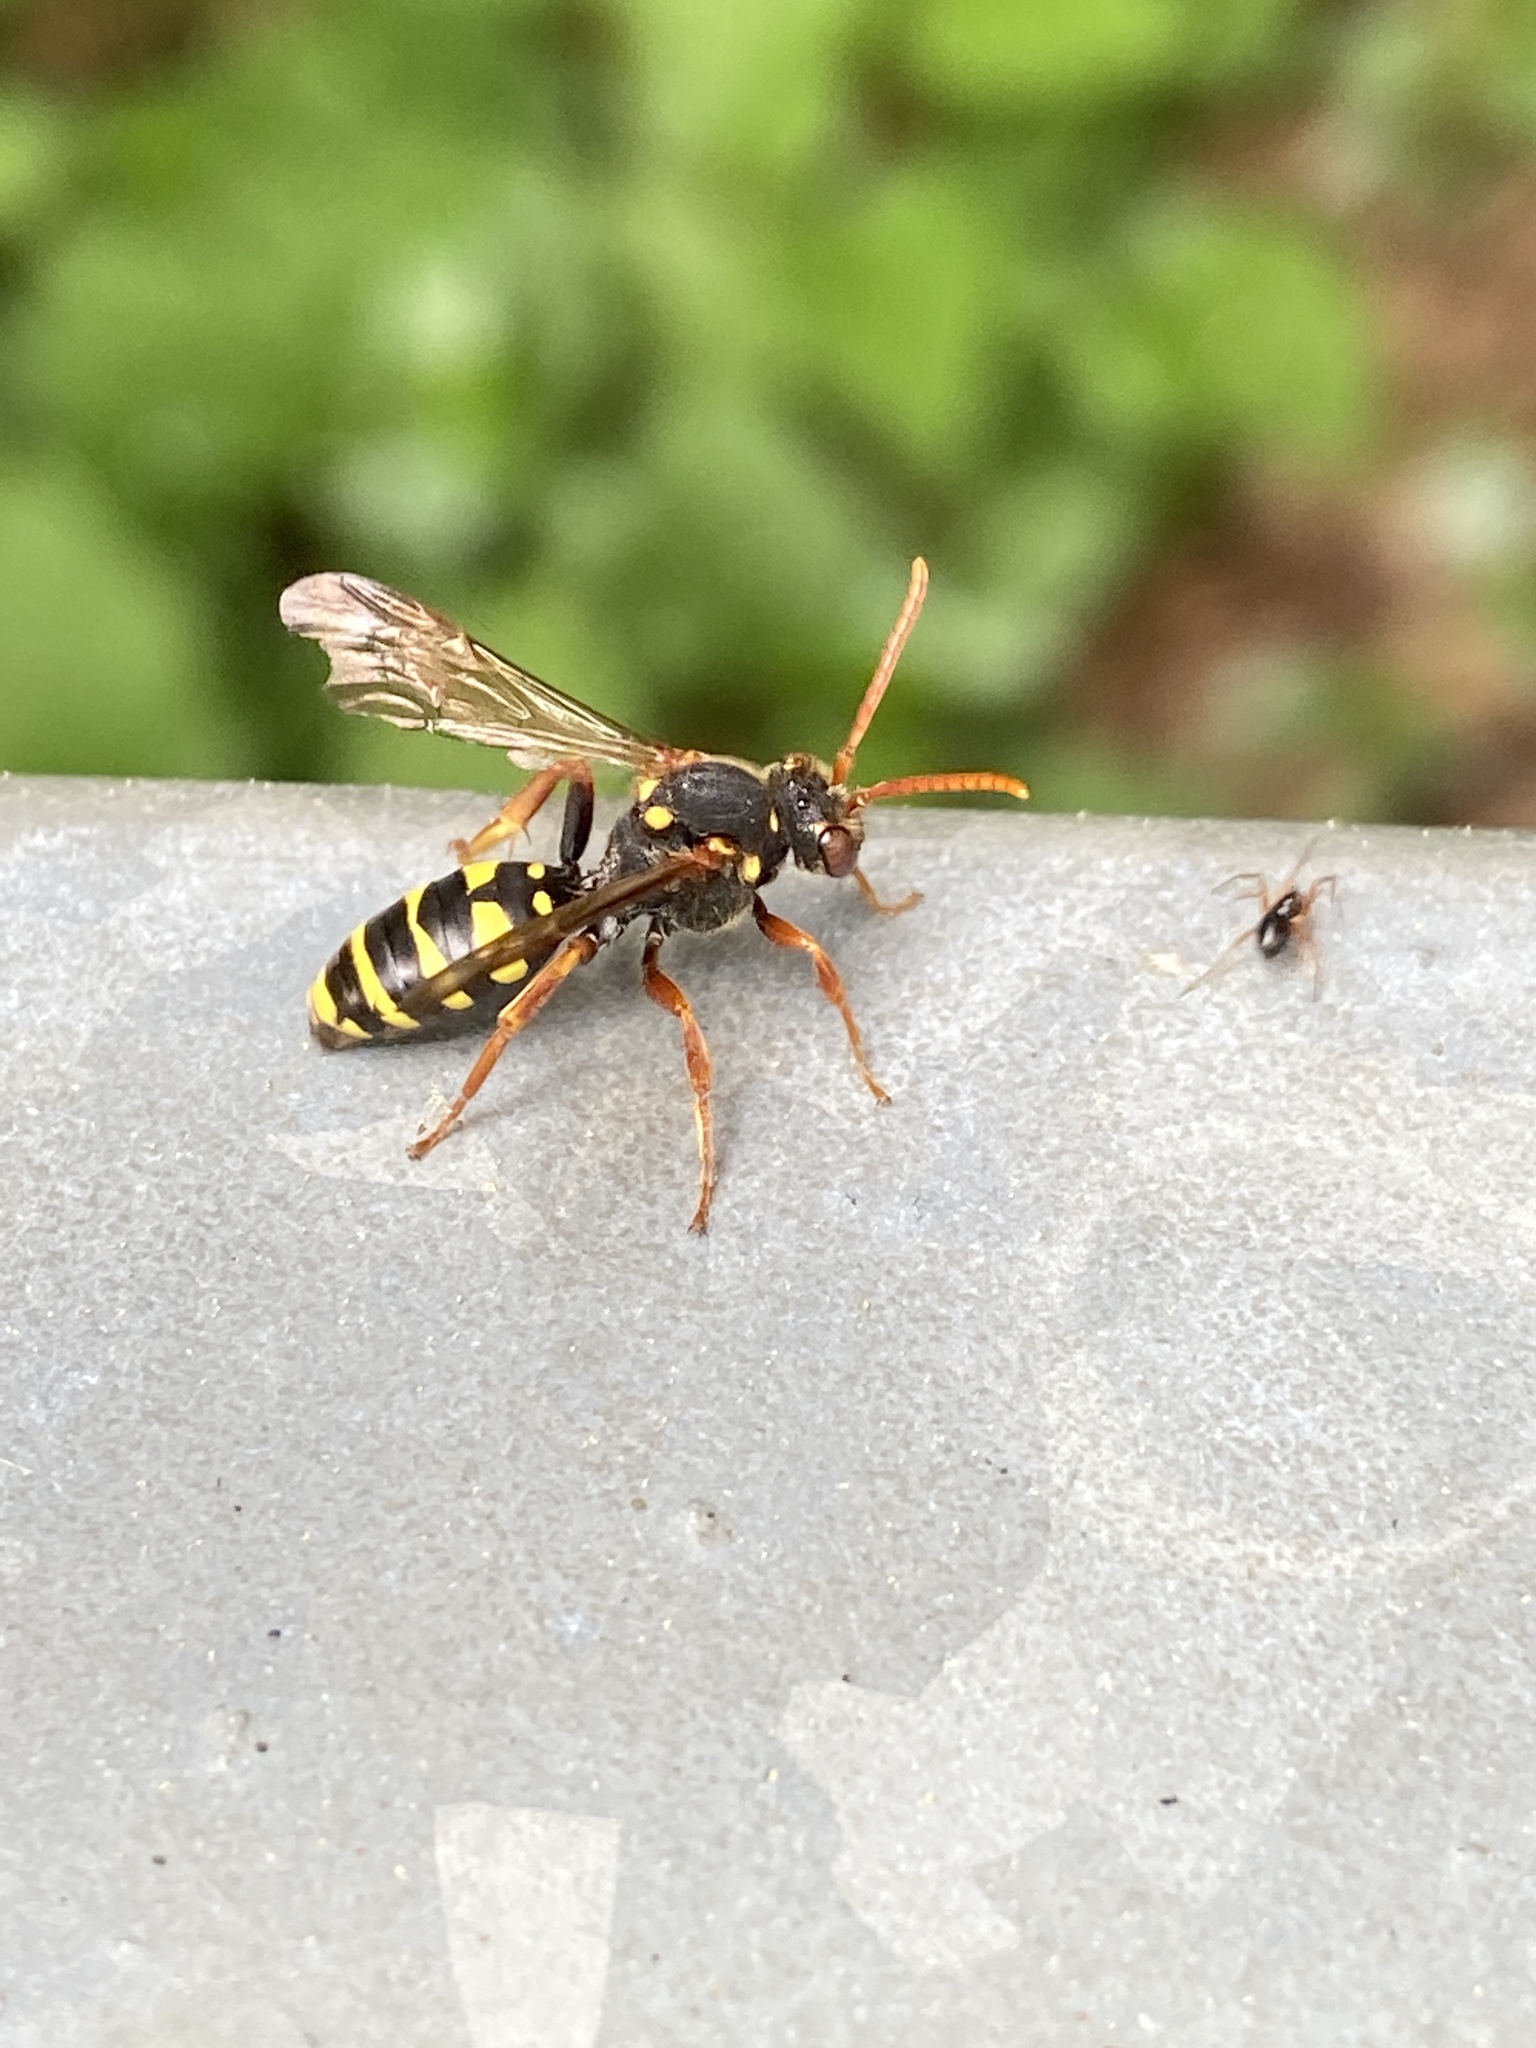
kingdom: Animalia
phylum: Arthropoda
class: Insecta
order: Hymenoptera
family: Eumenidae
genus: Polistes
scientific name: Polistes dominula
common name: Paper wasp
